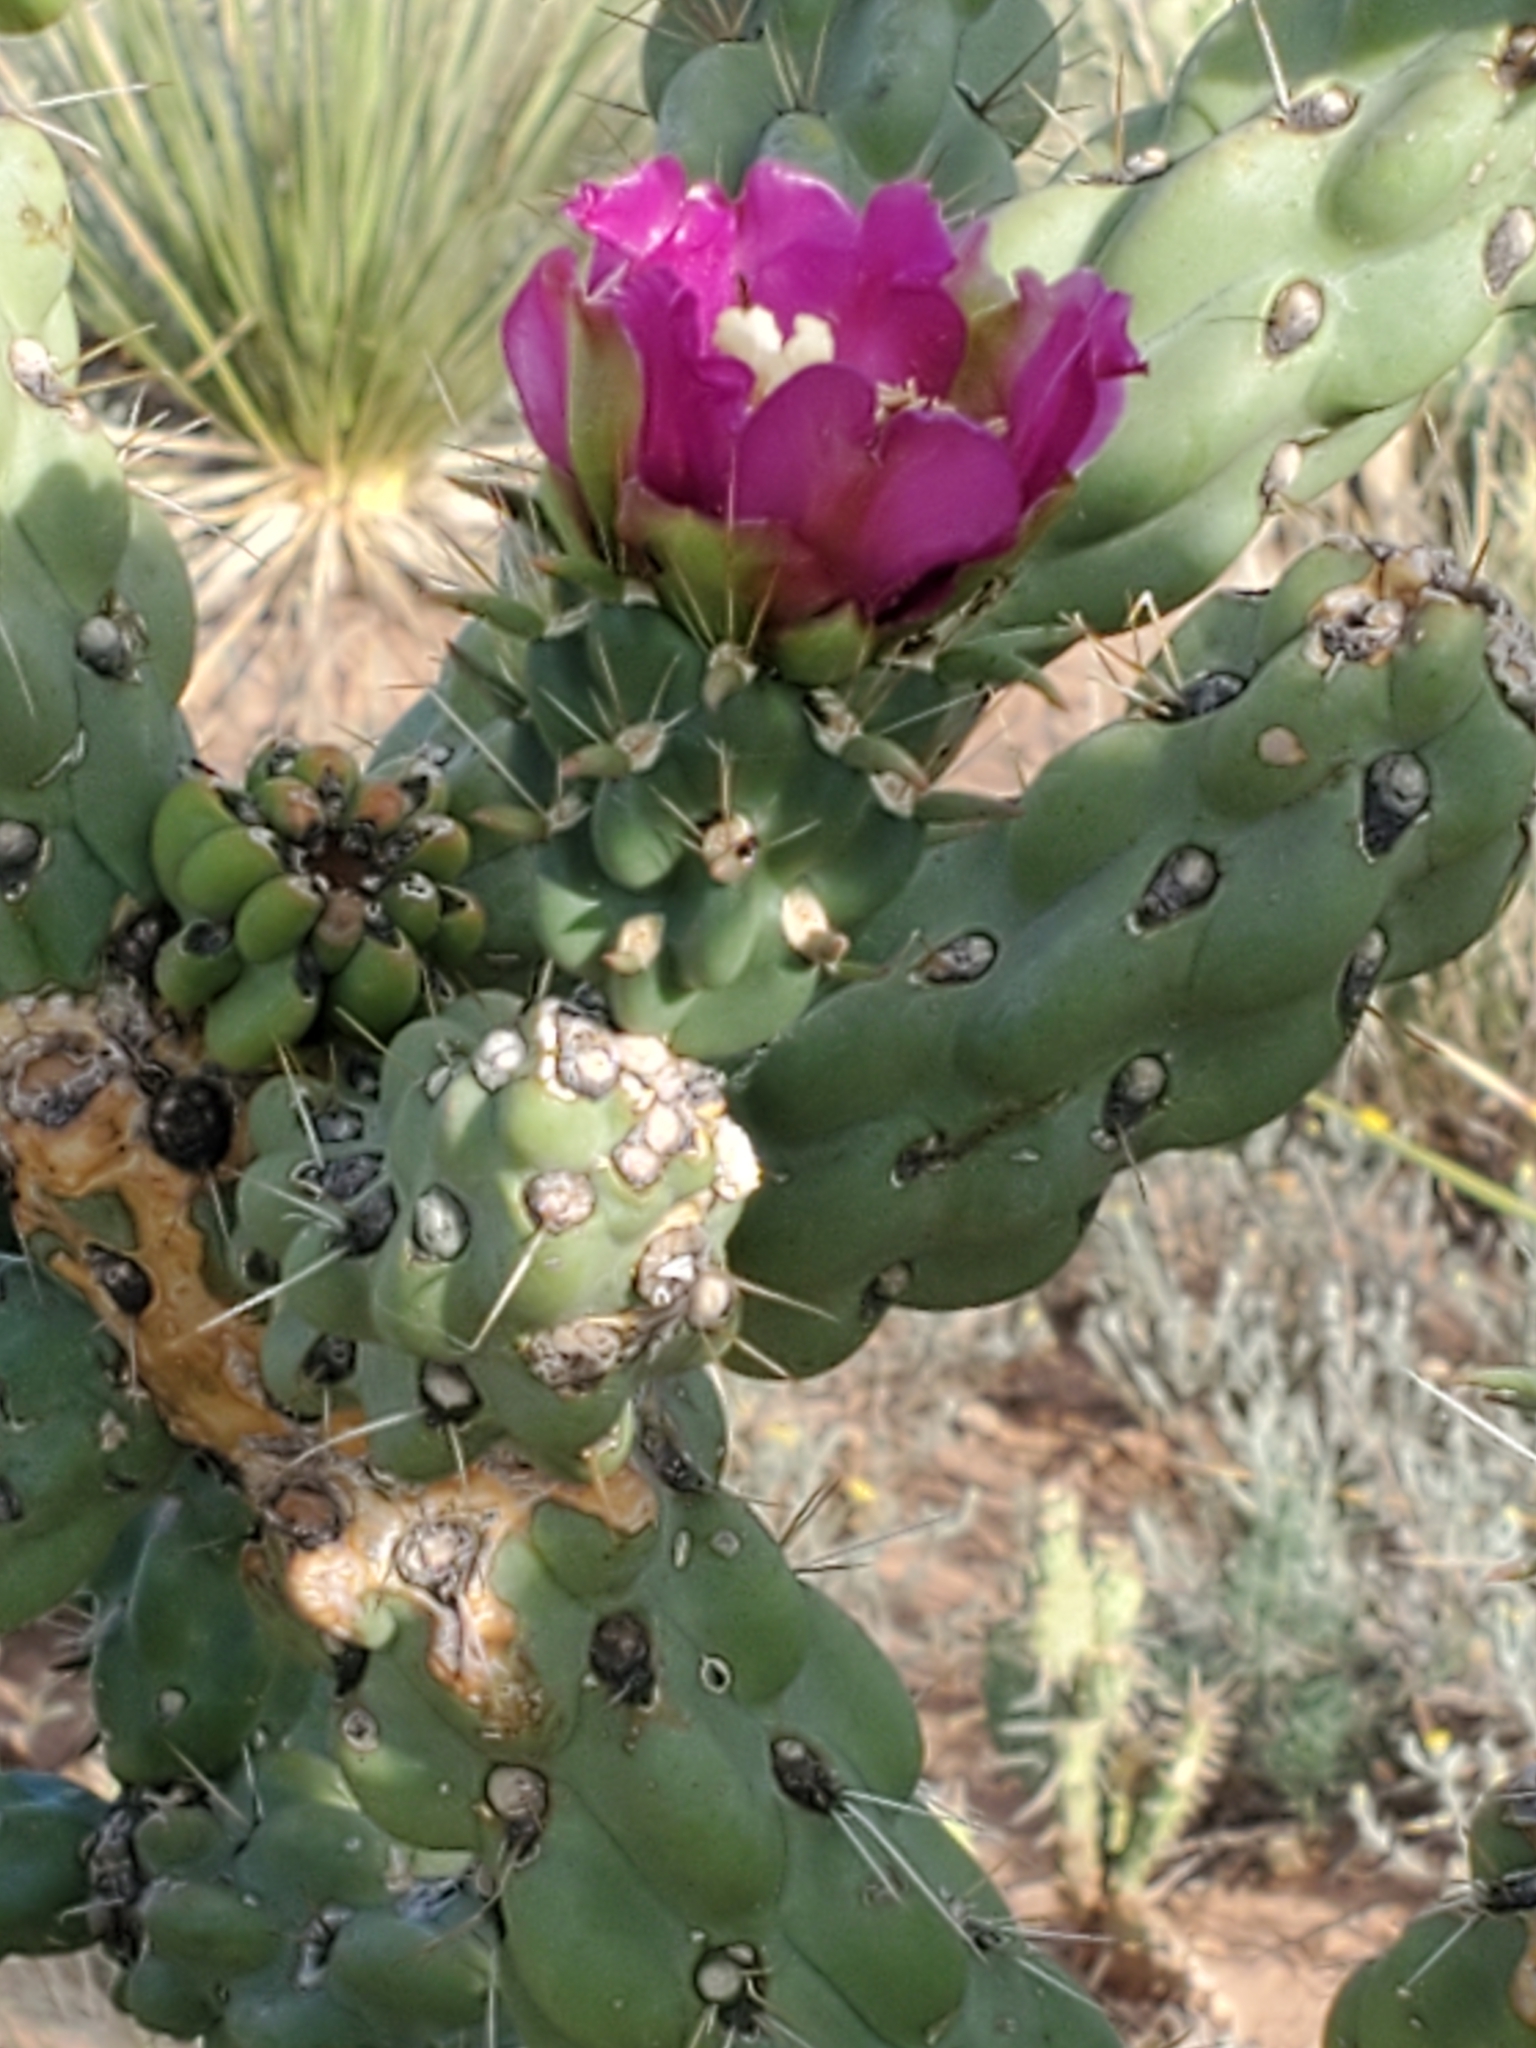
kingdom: Plantae
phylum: Tracheophyta
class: Magnoliopsida
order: Caryophyllales
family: Cactaceae
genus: Cylindropuntia
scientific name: Cylindropuntia imbricata
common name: Candelabrum cactus
